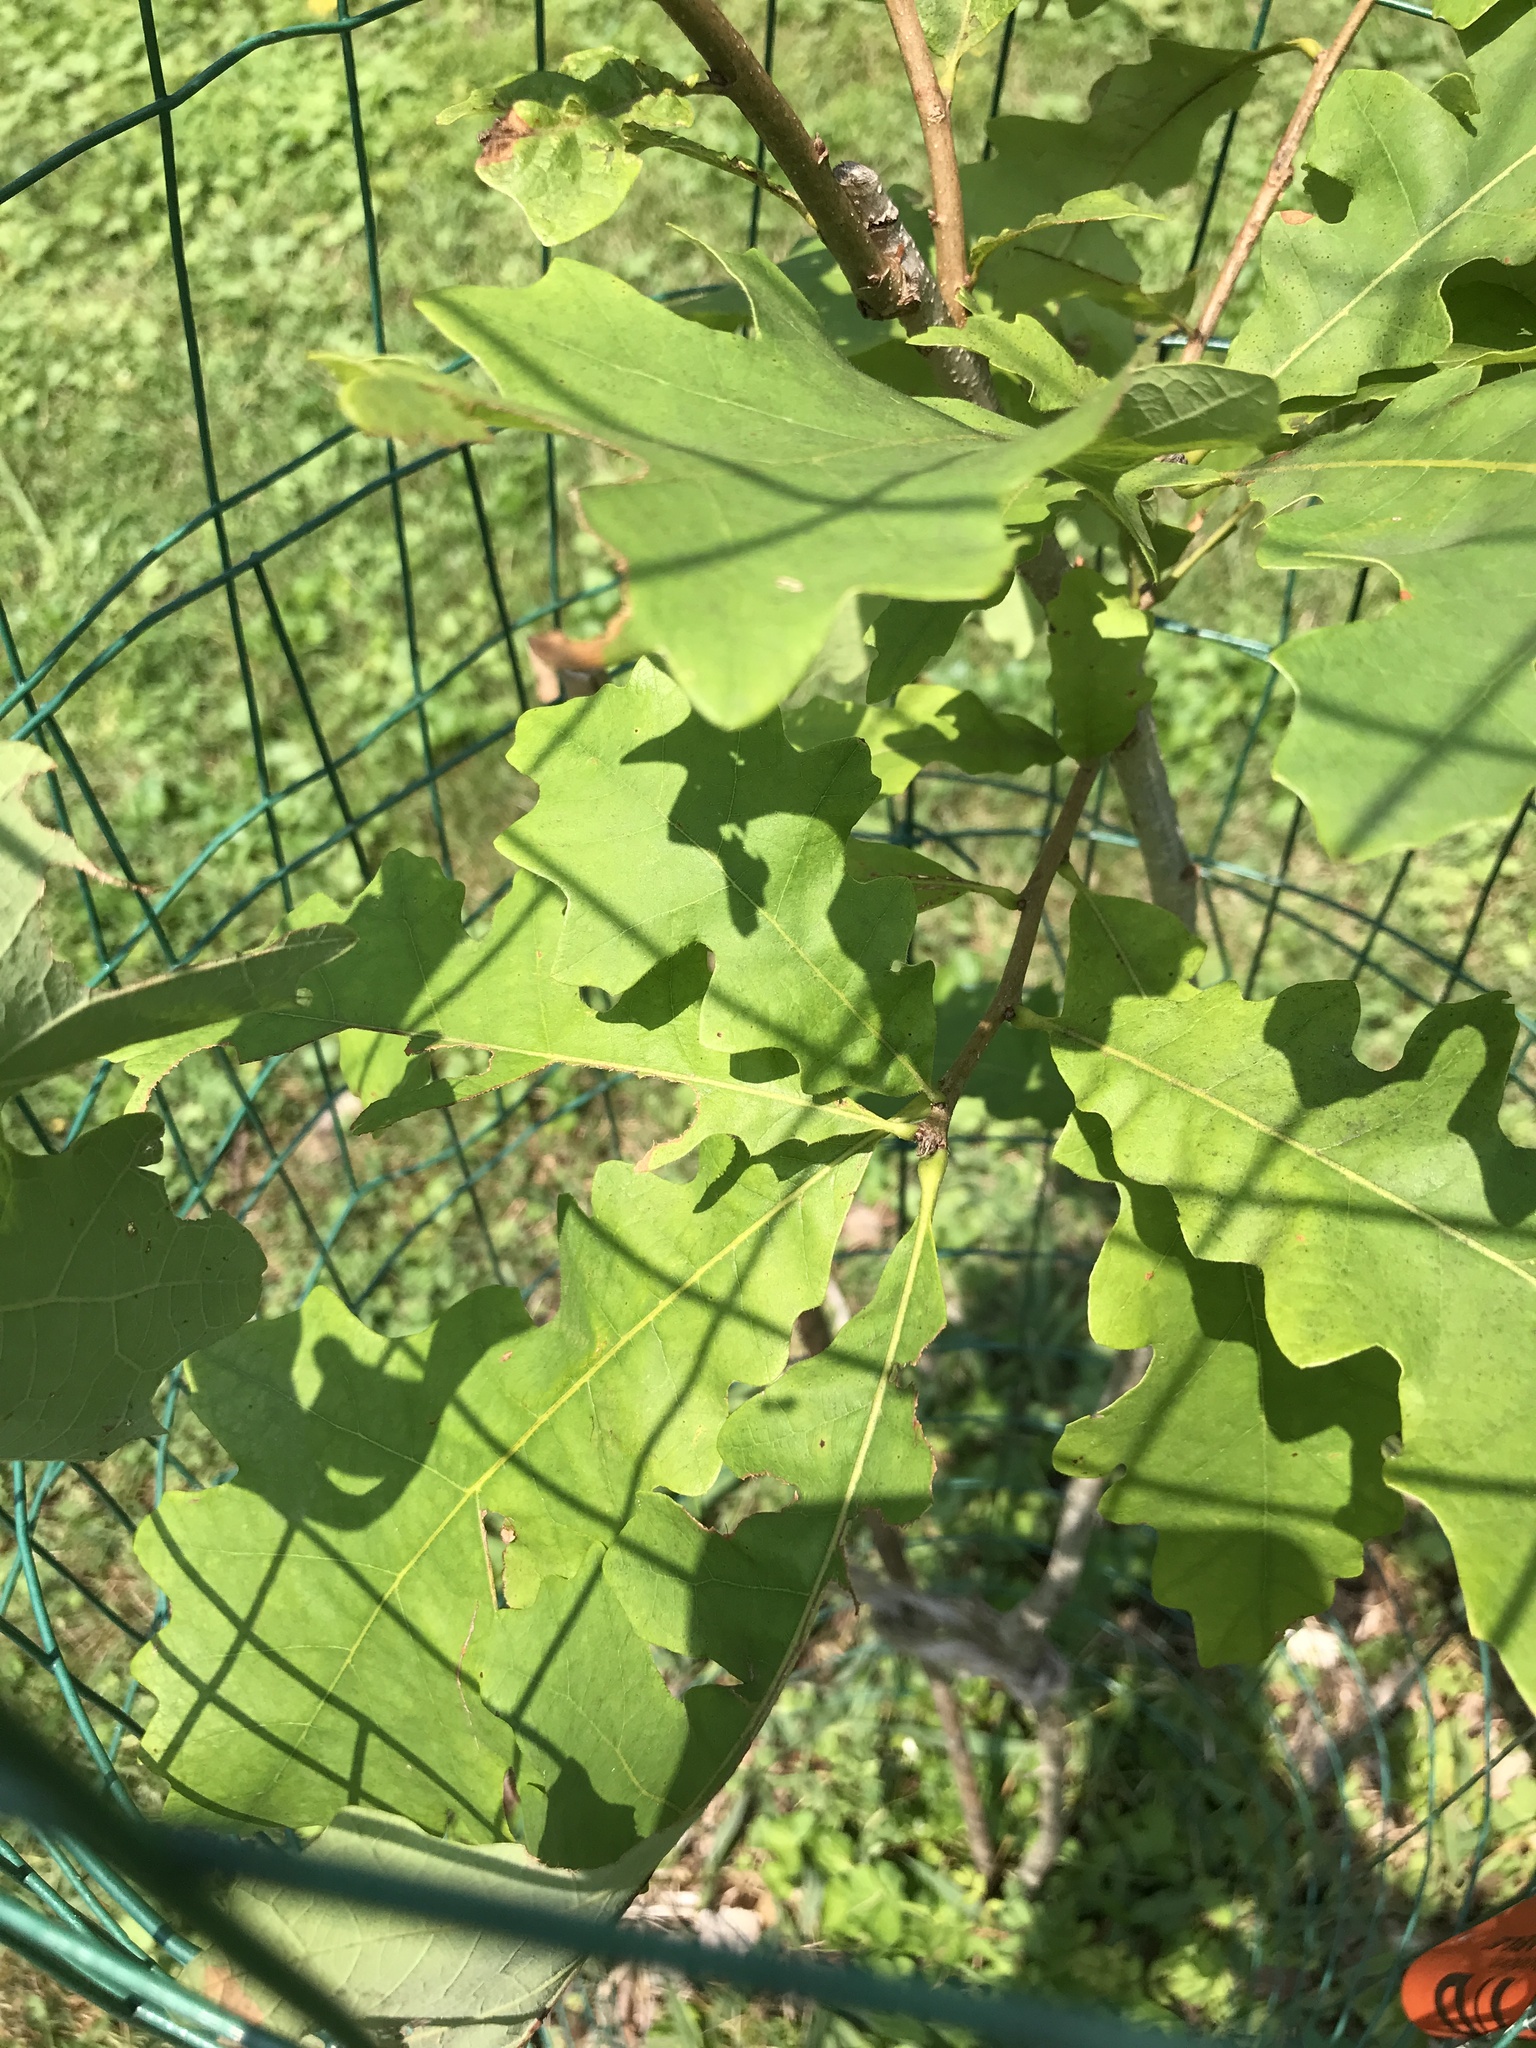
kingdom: Plantae
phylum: Tracheophyta
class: Magnoliopsida
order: Fagales
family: Fagaceae
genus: Quercus
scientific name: Quercus alba
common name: White oak
